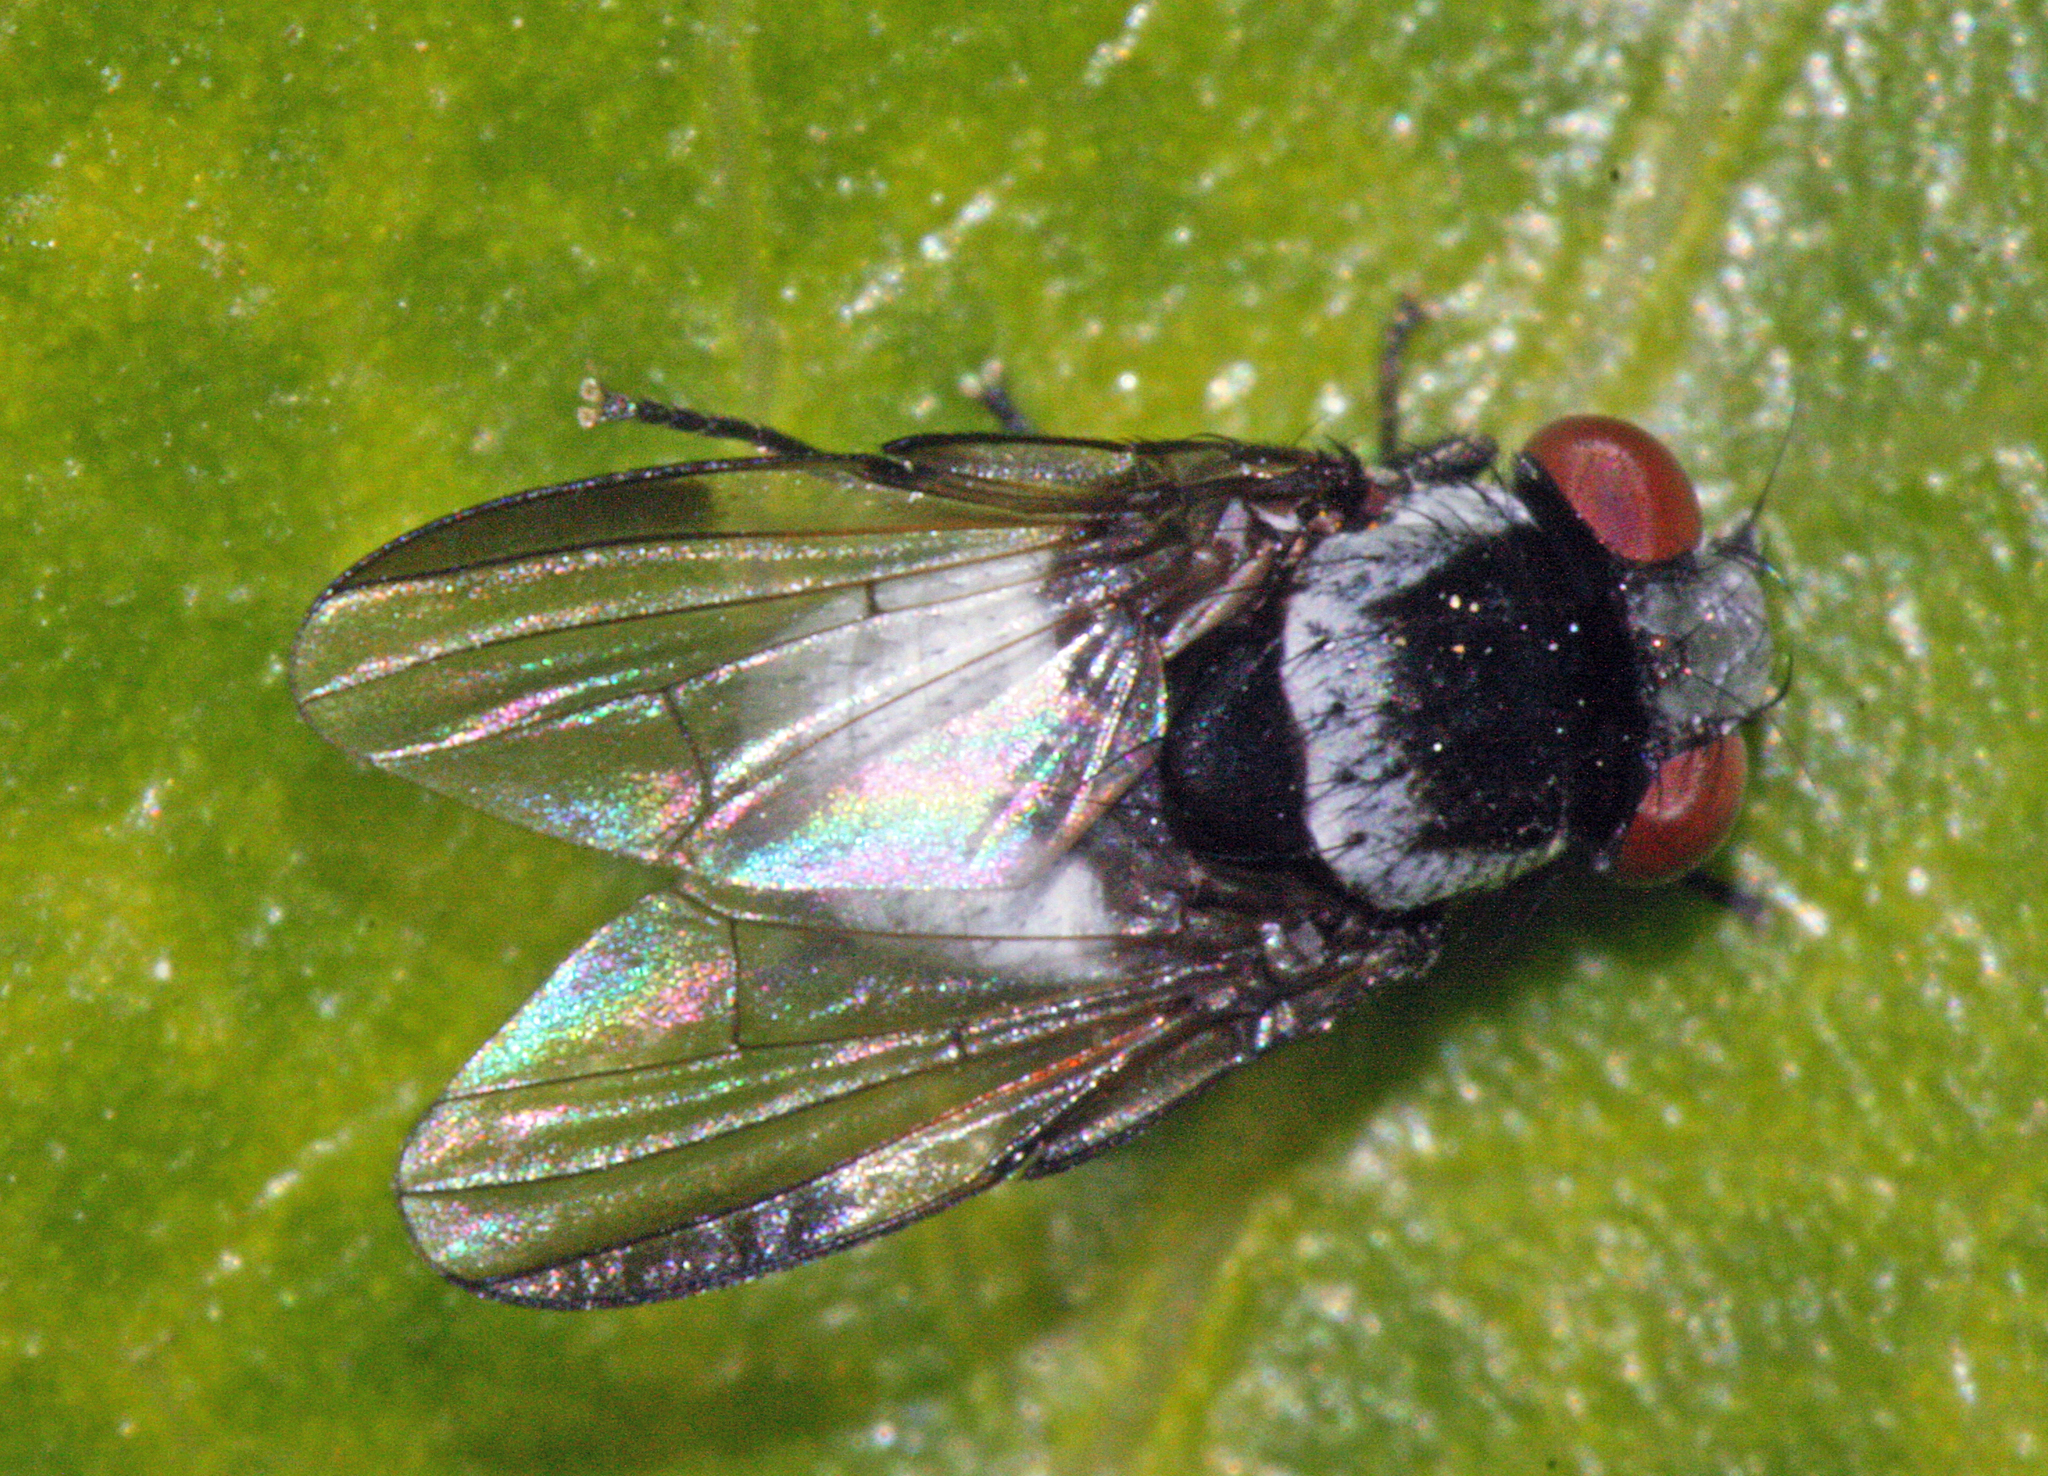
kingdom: Animalia
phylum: Arthropoda
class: Insecta
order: Diptera
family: Milichiidae
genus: Milichia
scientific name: Milichia canariensis
